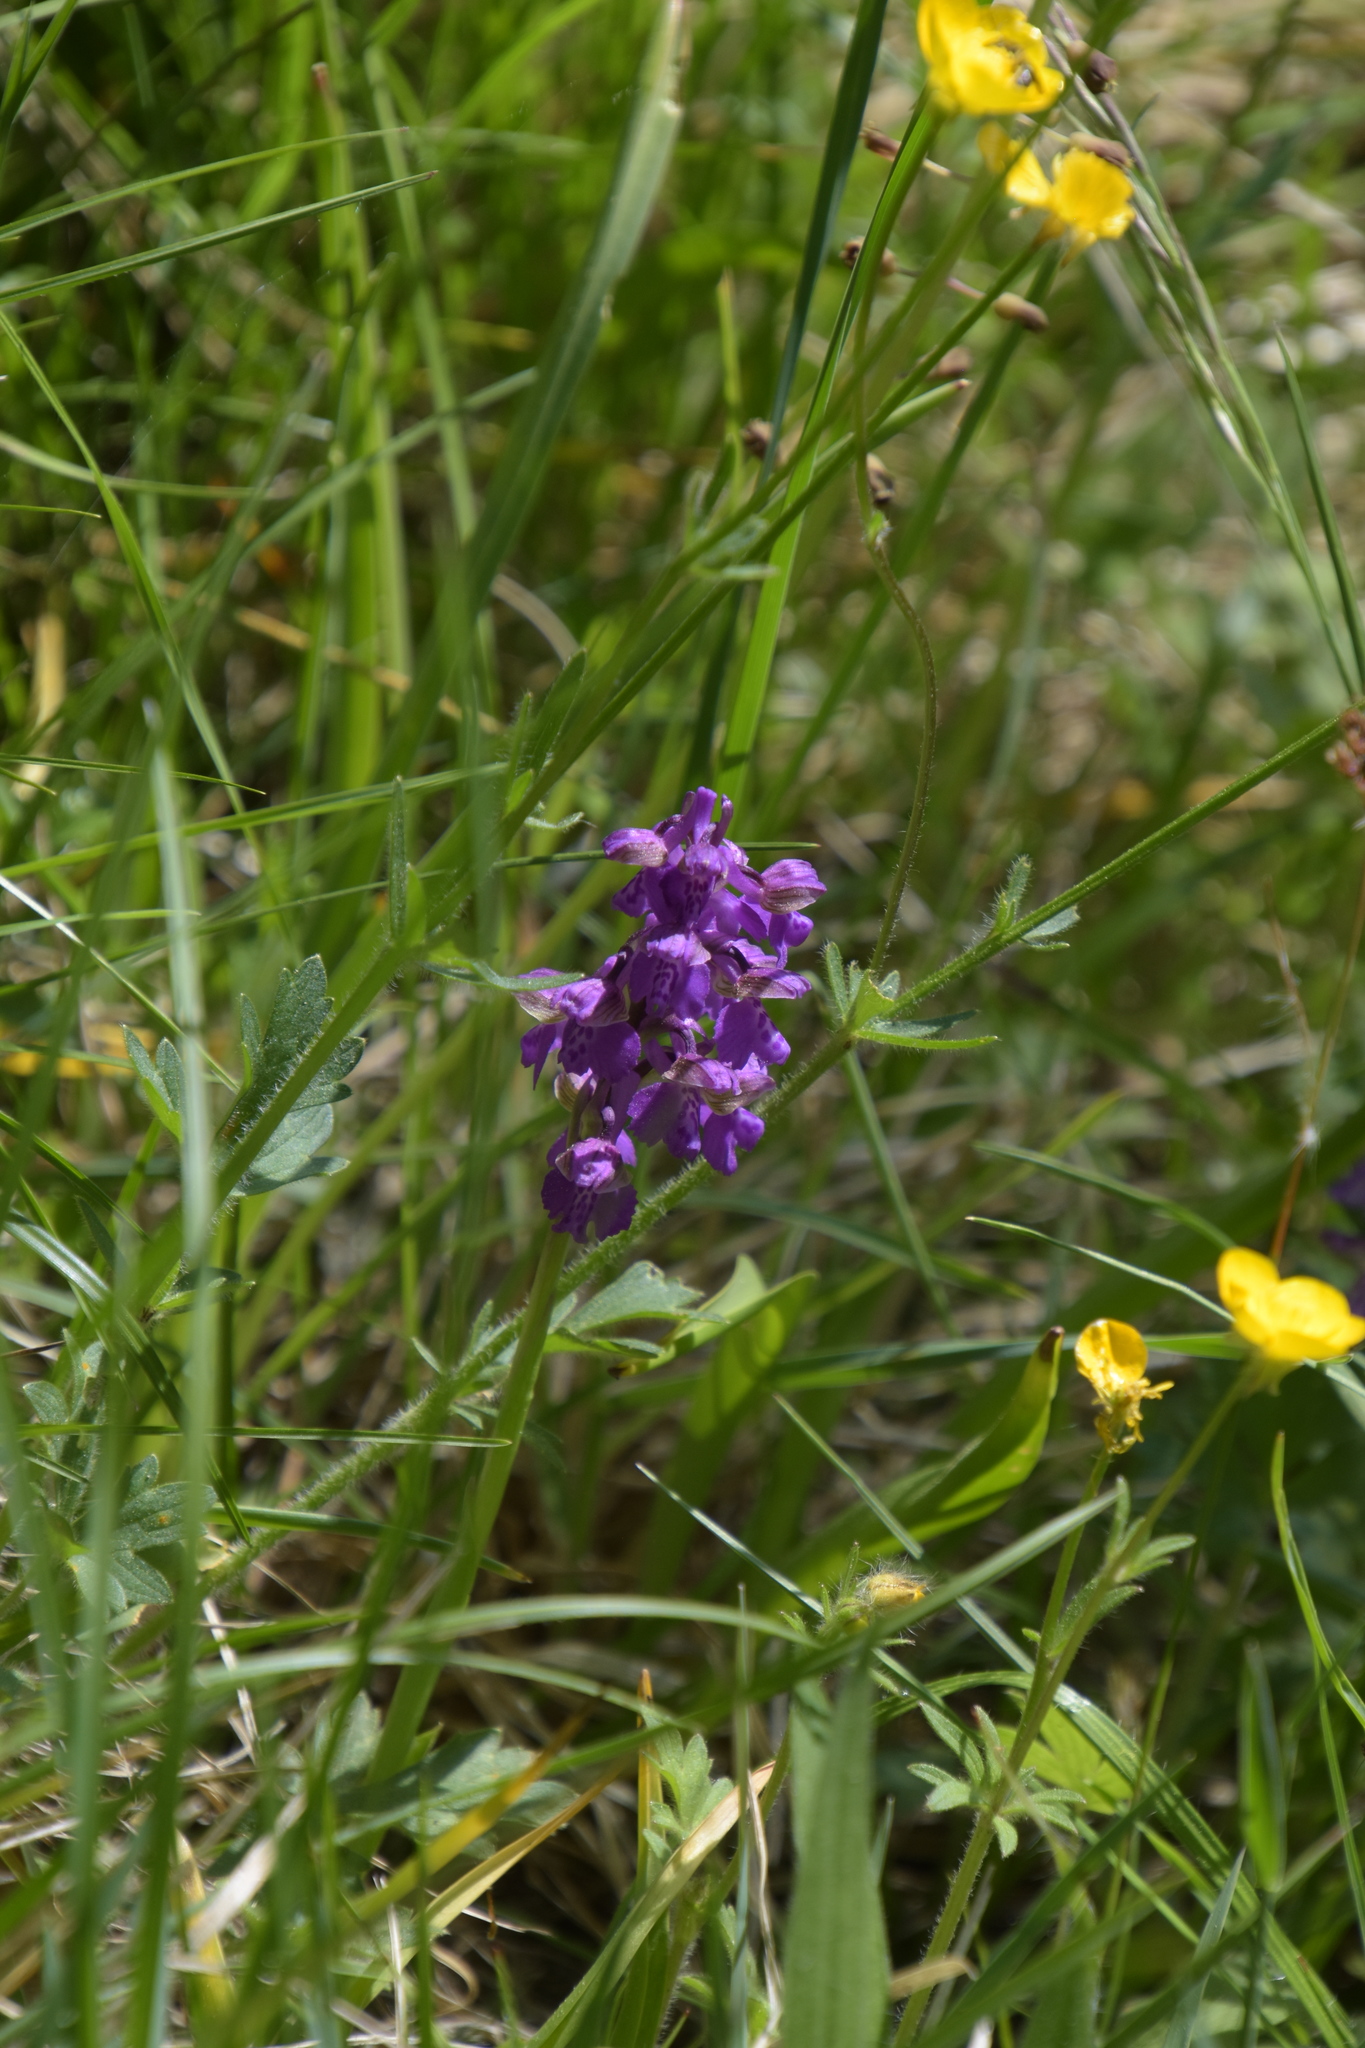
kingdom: Plantae
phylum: Tracheophyta
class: Liliopsida
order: Asparagales
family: Orchidaceae
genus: Anacamptis
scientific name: Anacamptis morio
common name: Green-winged orchid
